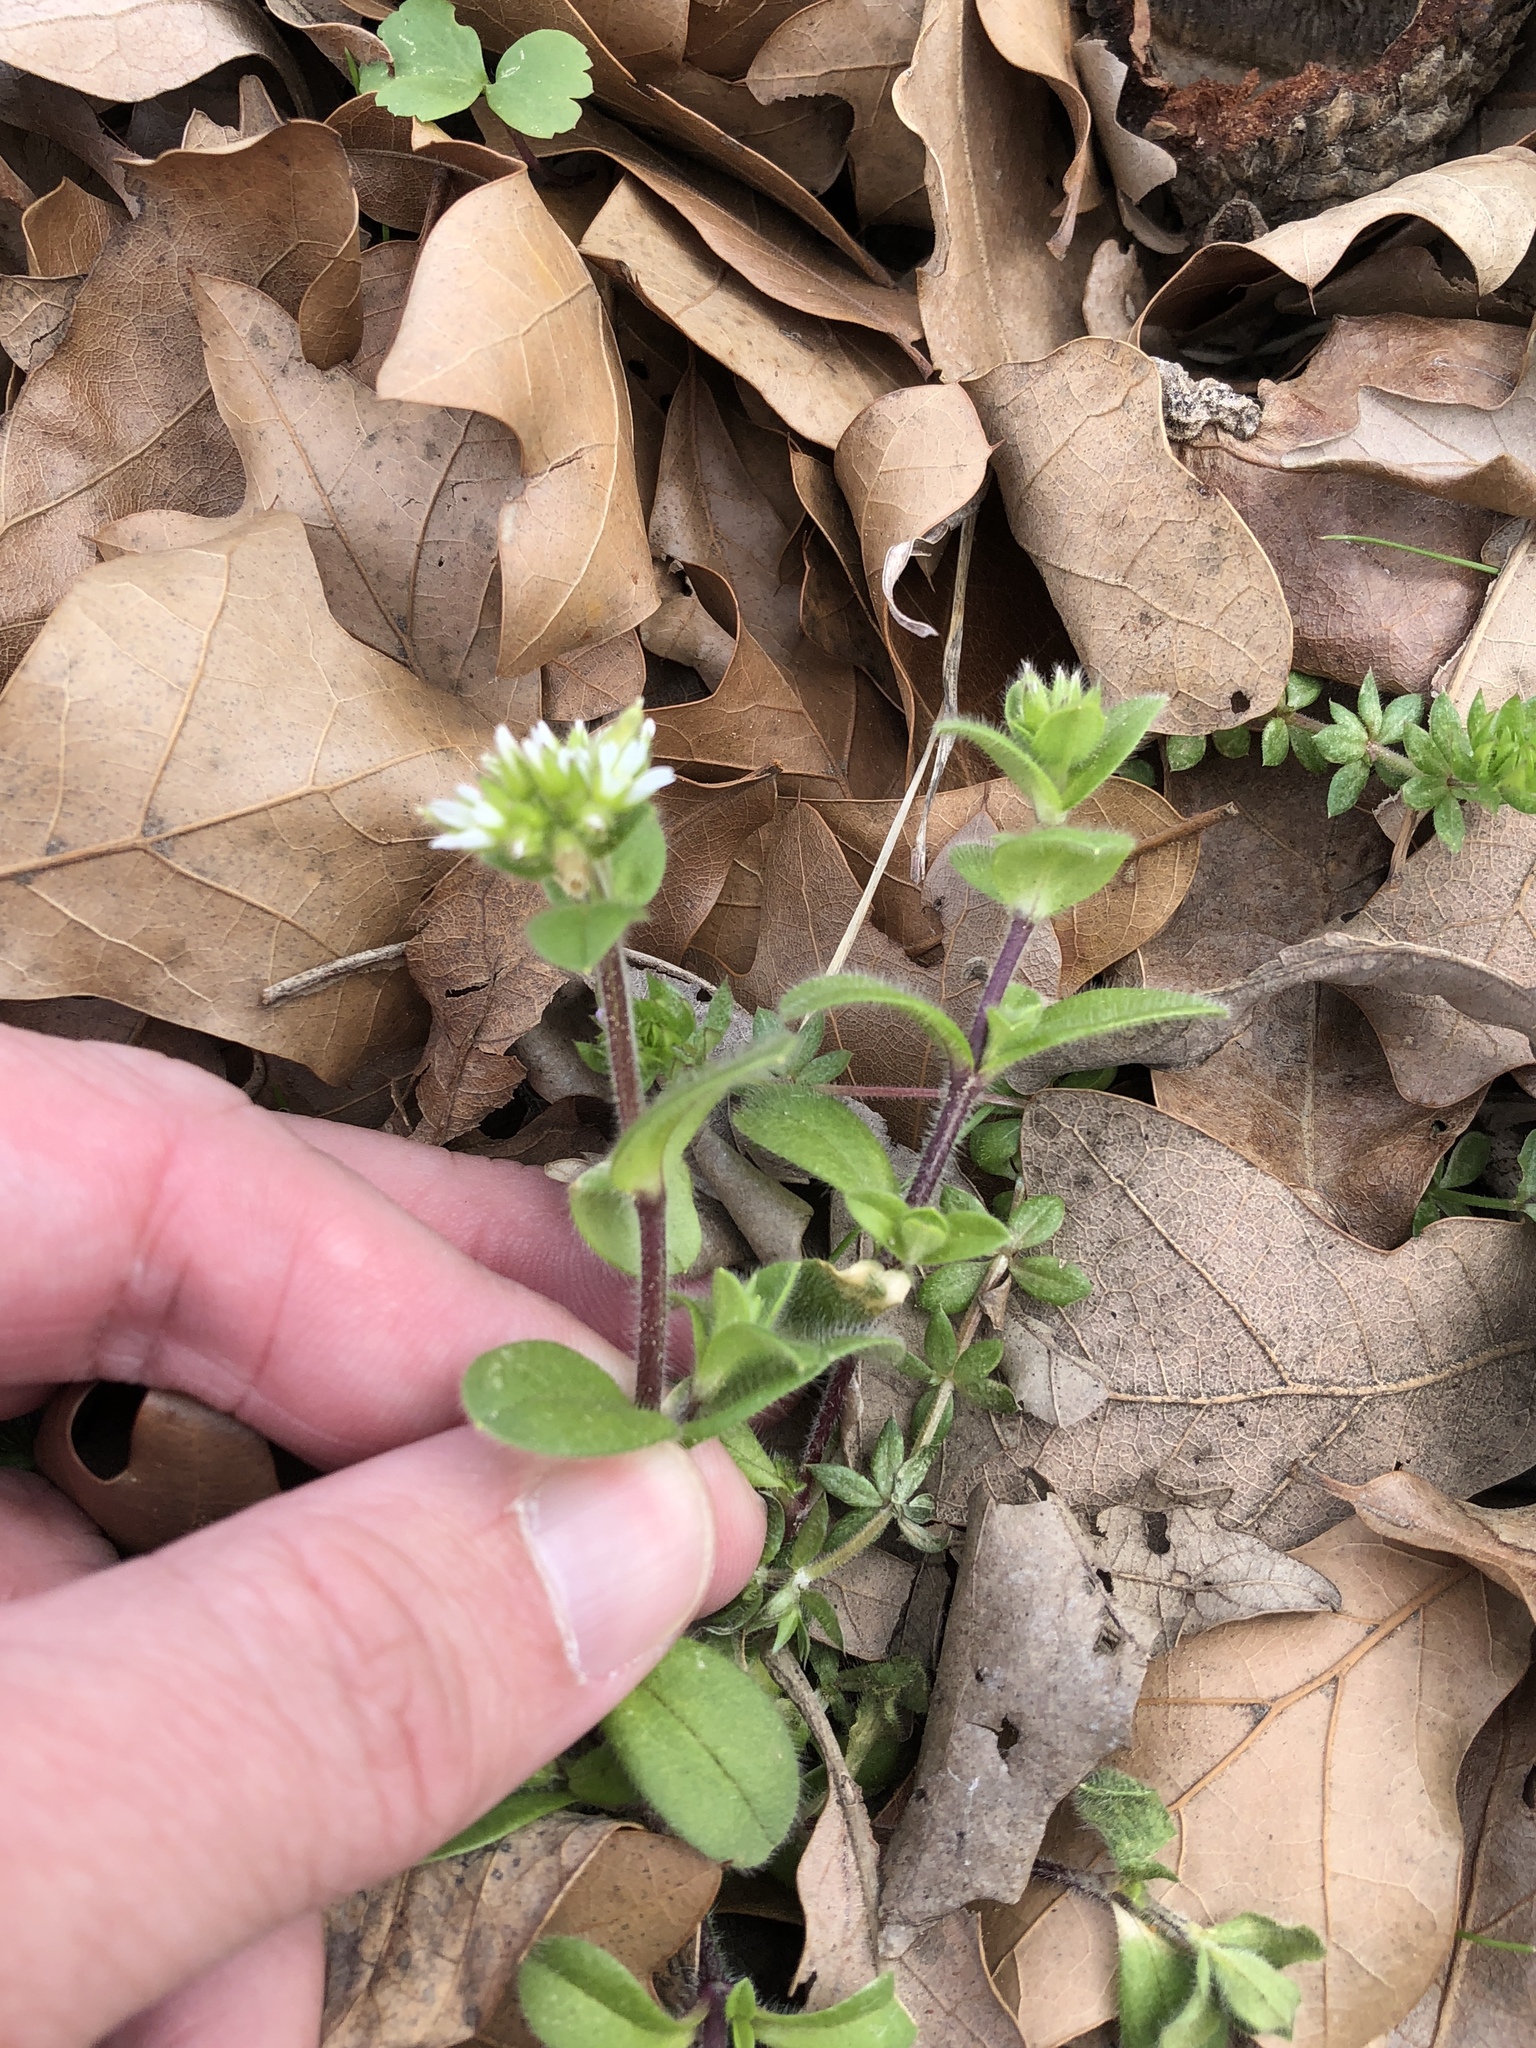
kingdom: Plantae
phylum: Tracheophyta
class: Magnoliopsida
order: Caryophyllales
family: Caryophyllaceae
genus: Cerastium
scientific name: Cerastium glomeratum
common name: Sticky chickweed
